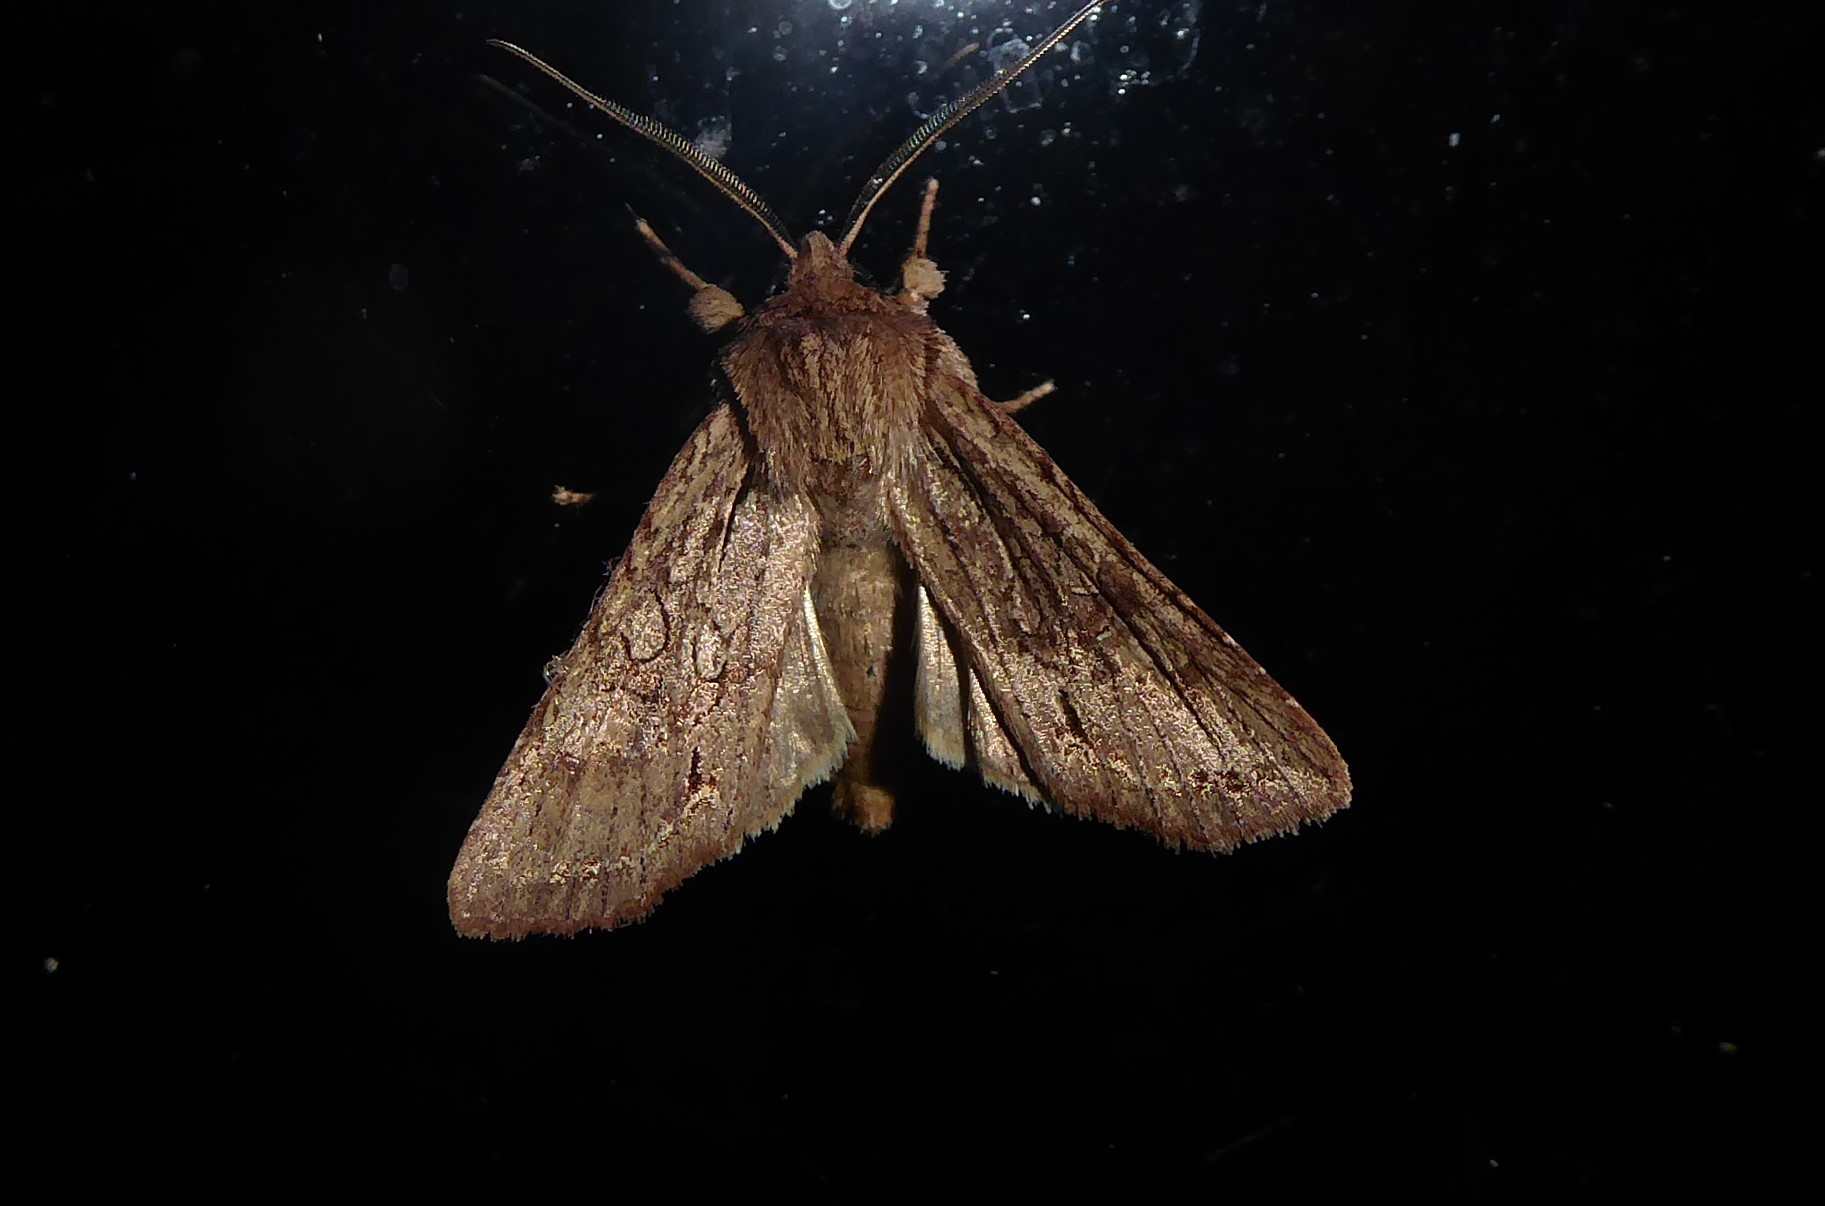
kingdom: Animalia
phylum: Arthropoda
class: Insecta
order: Lepidoptera
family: Noctuidae
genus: Ichneutica
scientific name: Ichneutica
